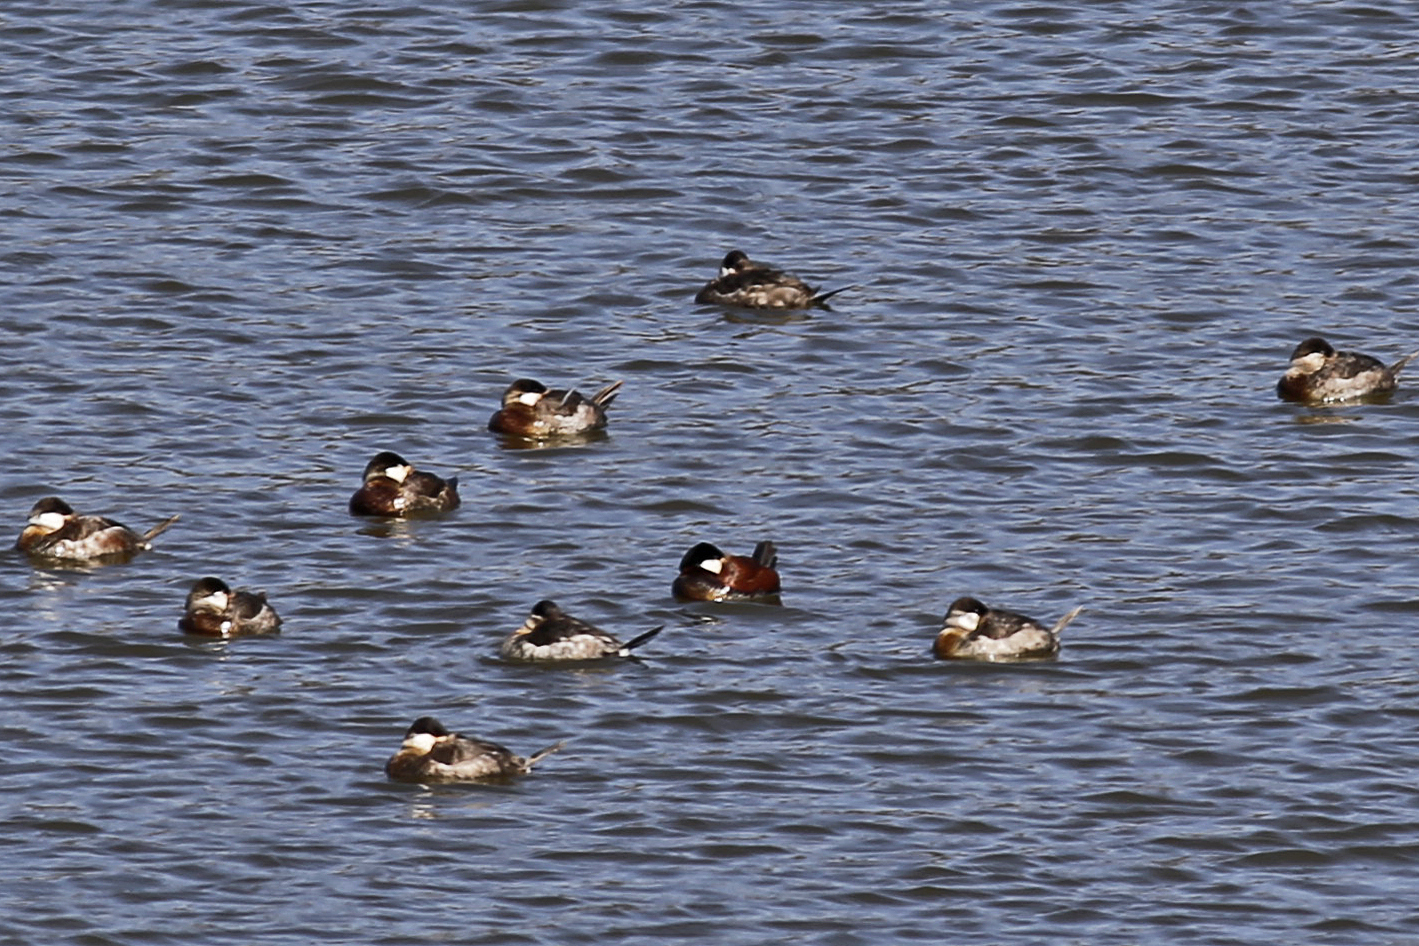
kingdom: Animalia
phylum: Chordata
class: Aves
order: Anseriformes
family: Anatidae
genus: Oxyura
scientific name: Oxyura jamaicensis
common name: Ruddy duck
